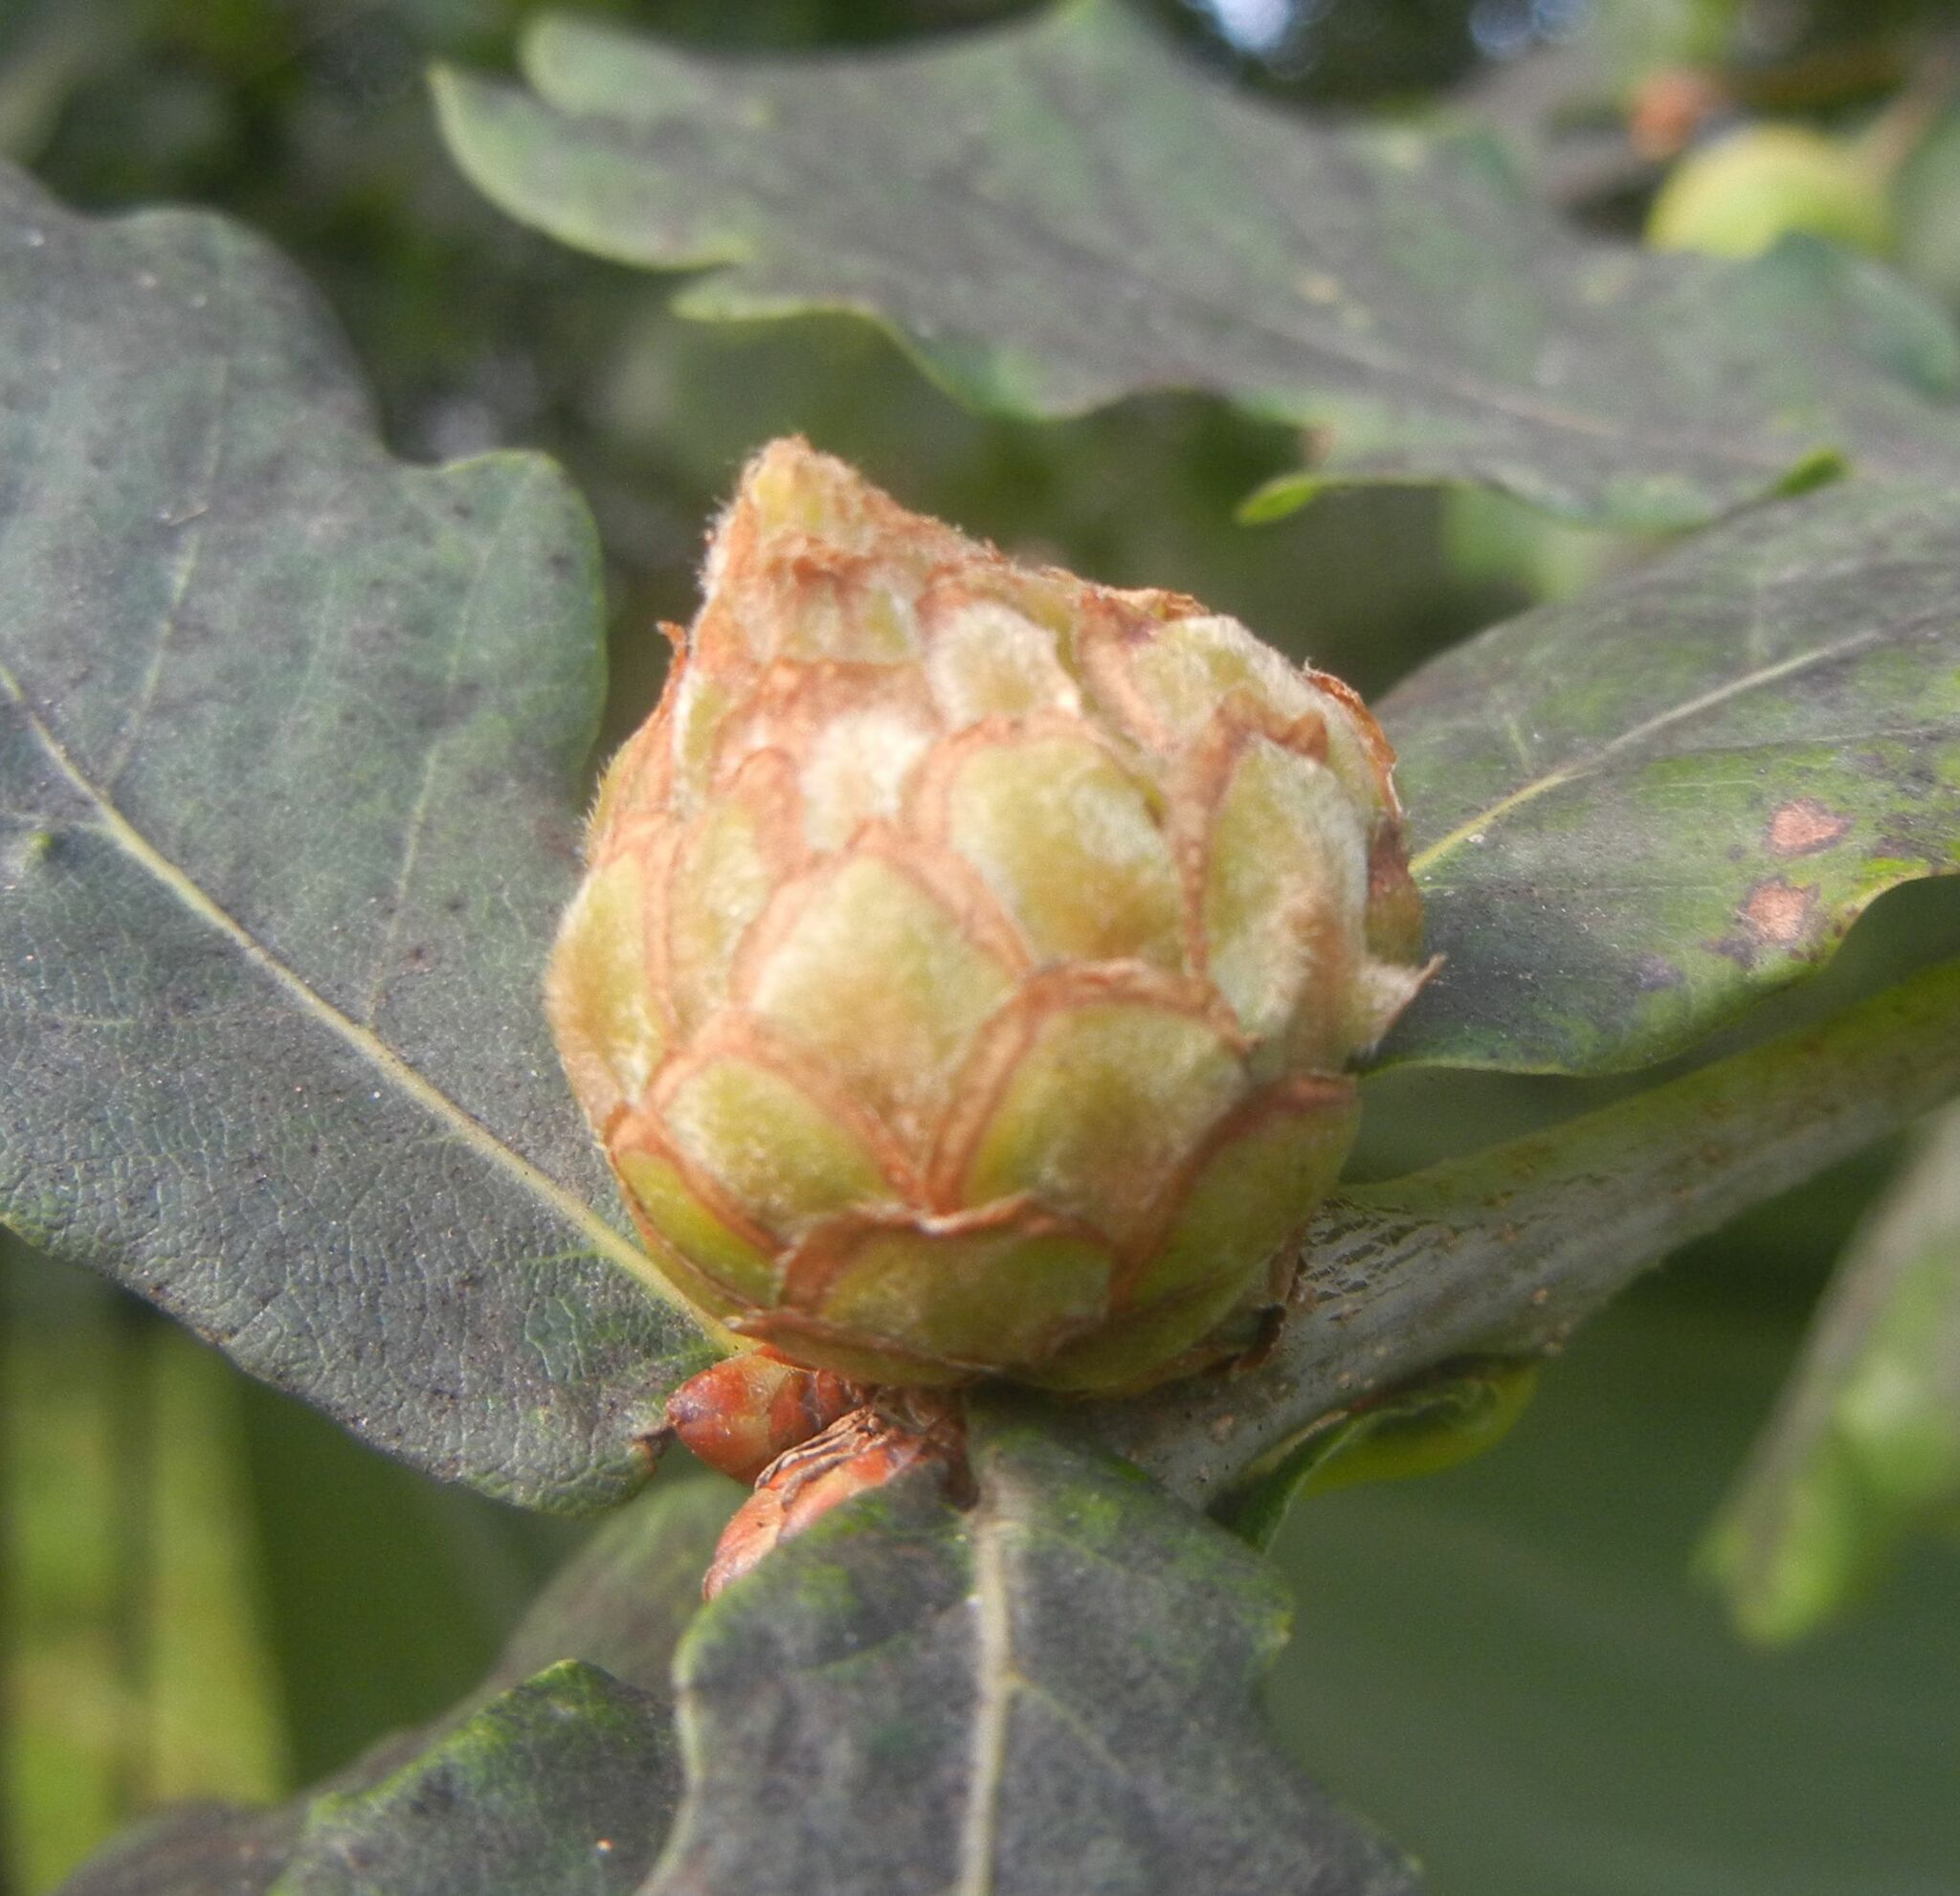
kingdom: Animalia
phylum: Arthropoda
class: Insecta
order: Hymenoptera
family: Cynipidae
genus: Andricus
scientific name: Andricus foecundatrix
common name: Artichoke gall
